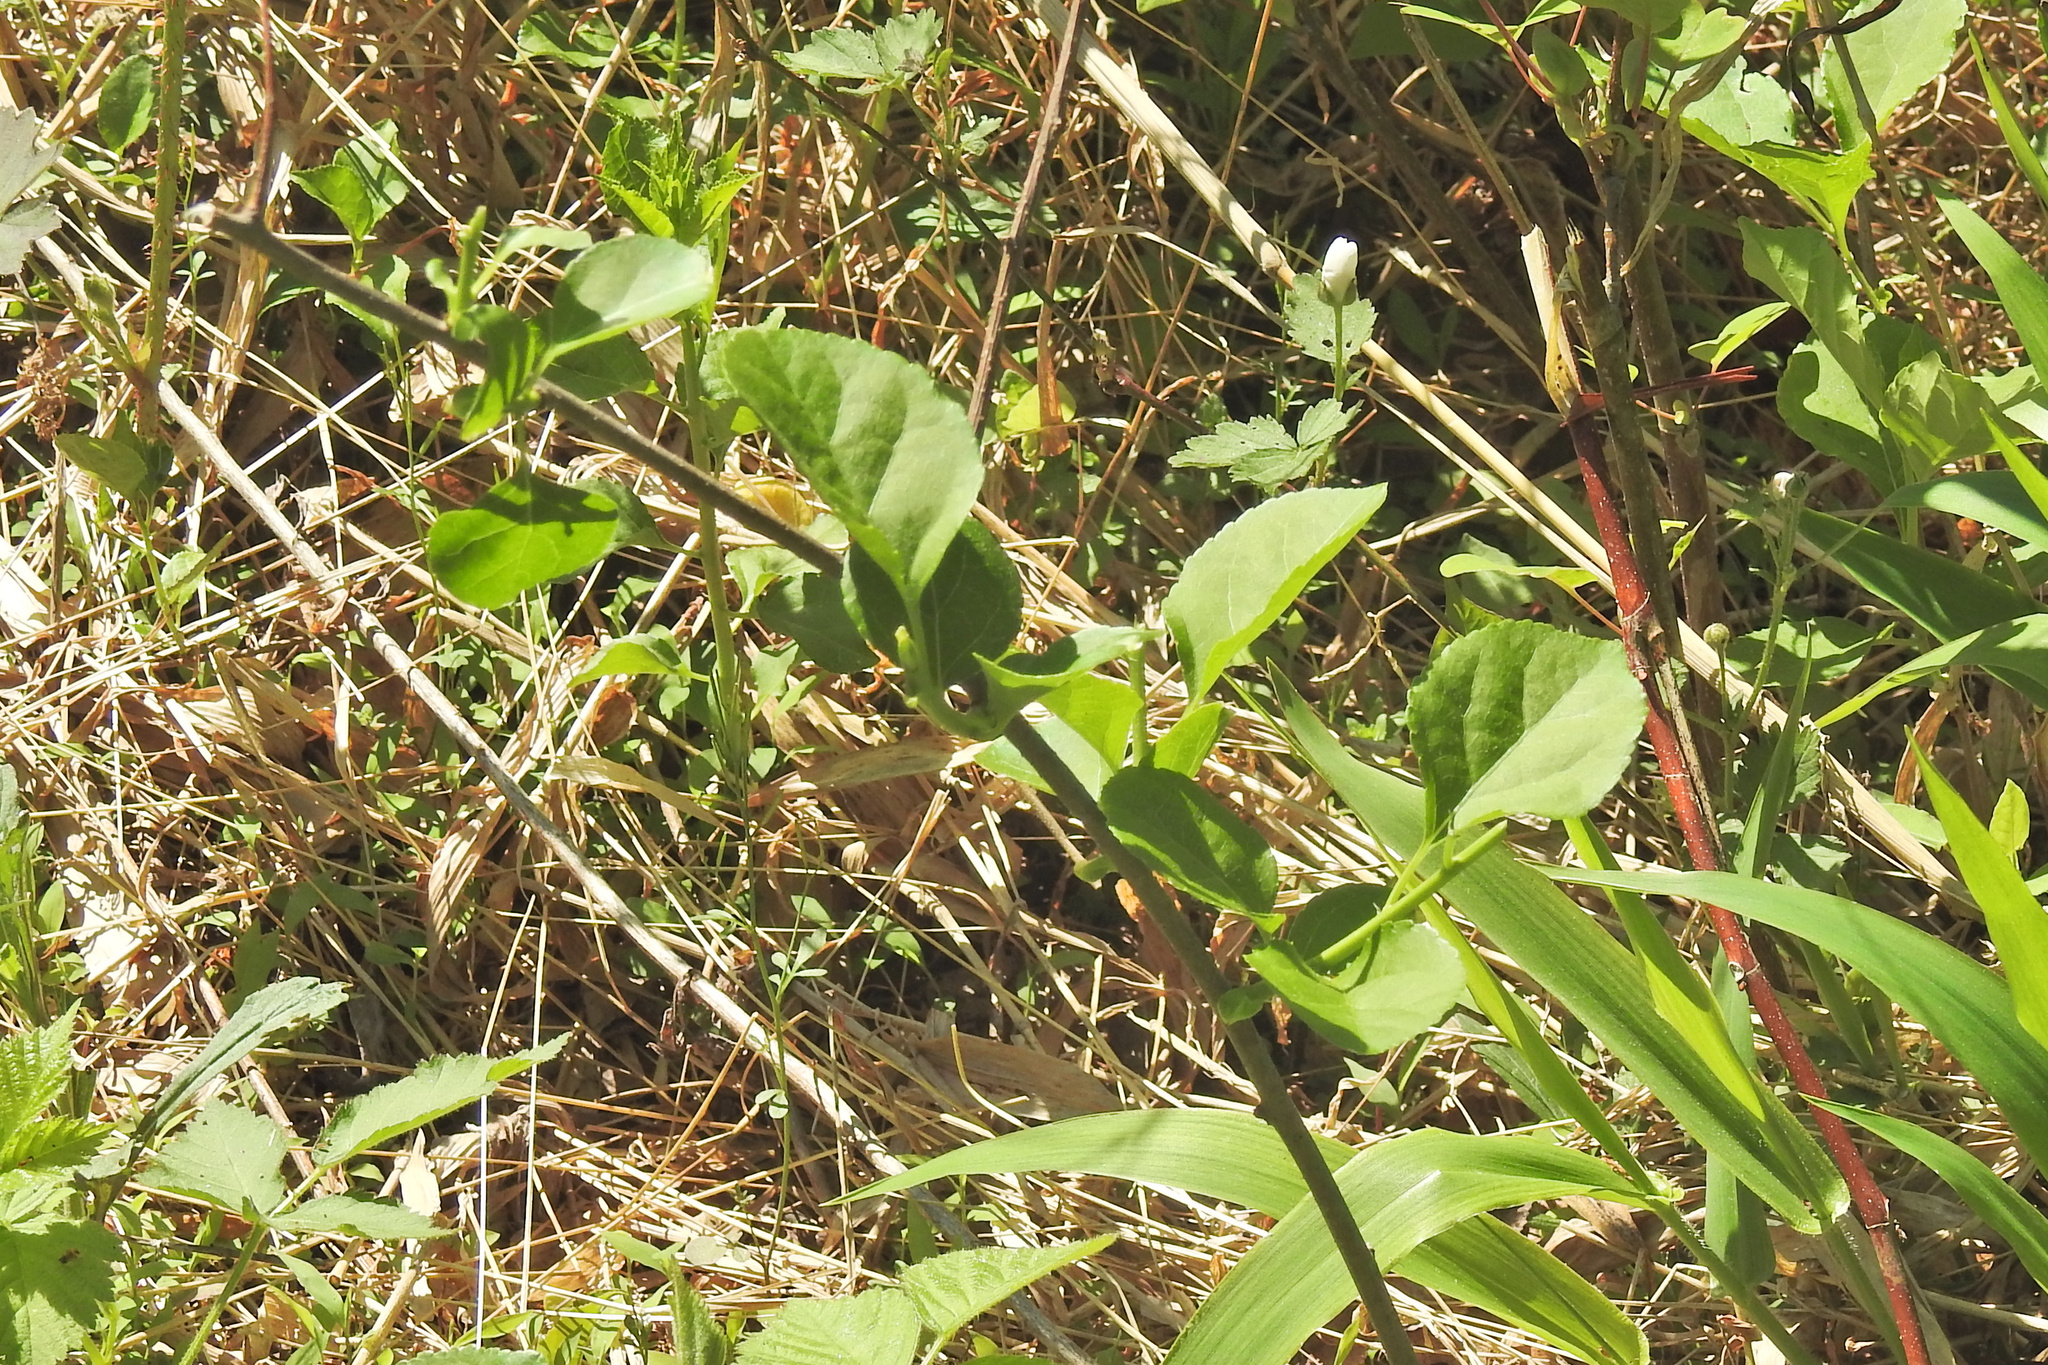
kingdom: Plantae
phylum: Tracheophyta
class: Magnoliopsida
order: Celastrales
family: Celastraceae
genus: Celastrus
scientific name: Celastrus orbiculatus
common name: Oriental bittersweet
